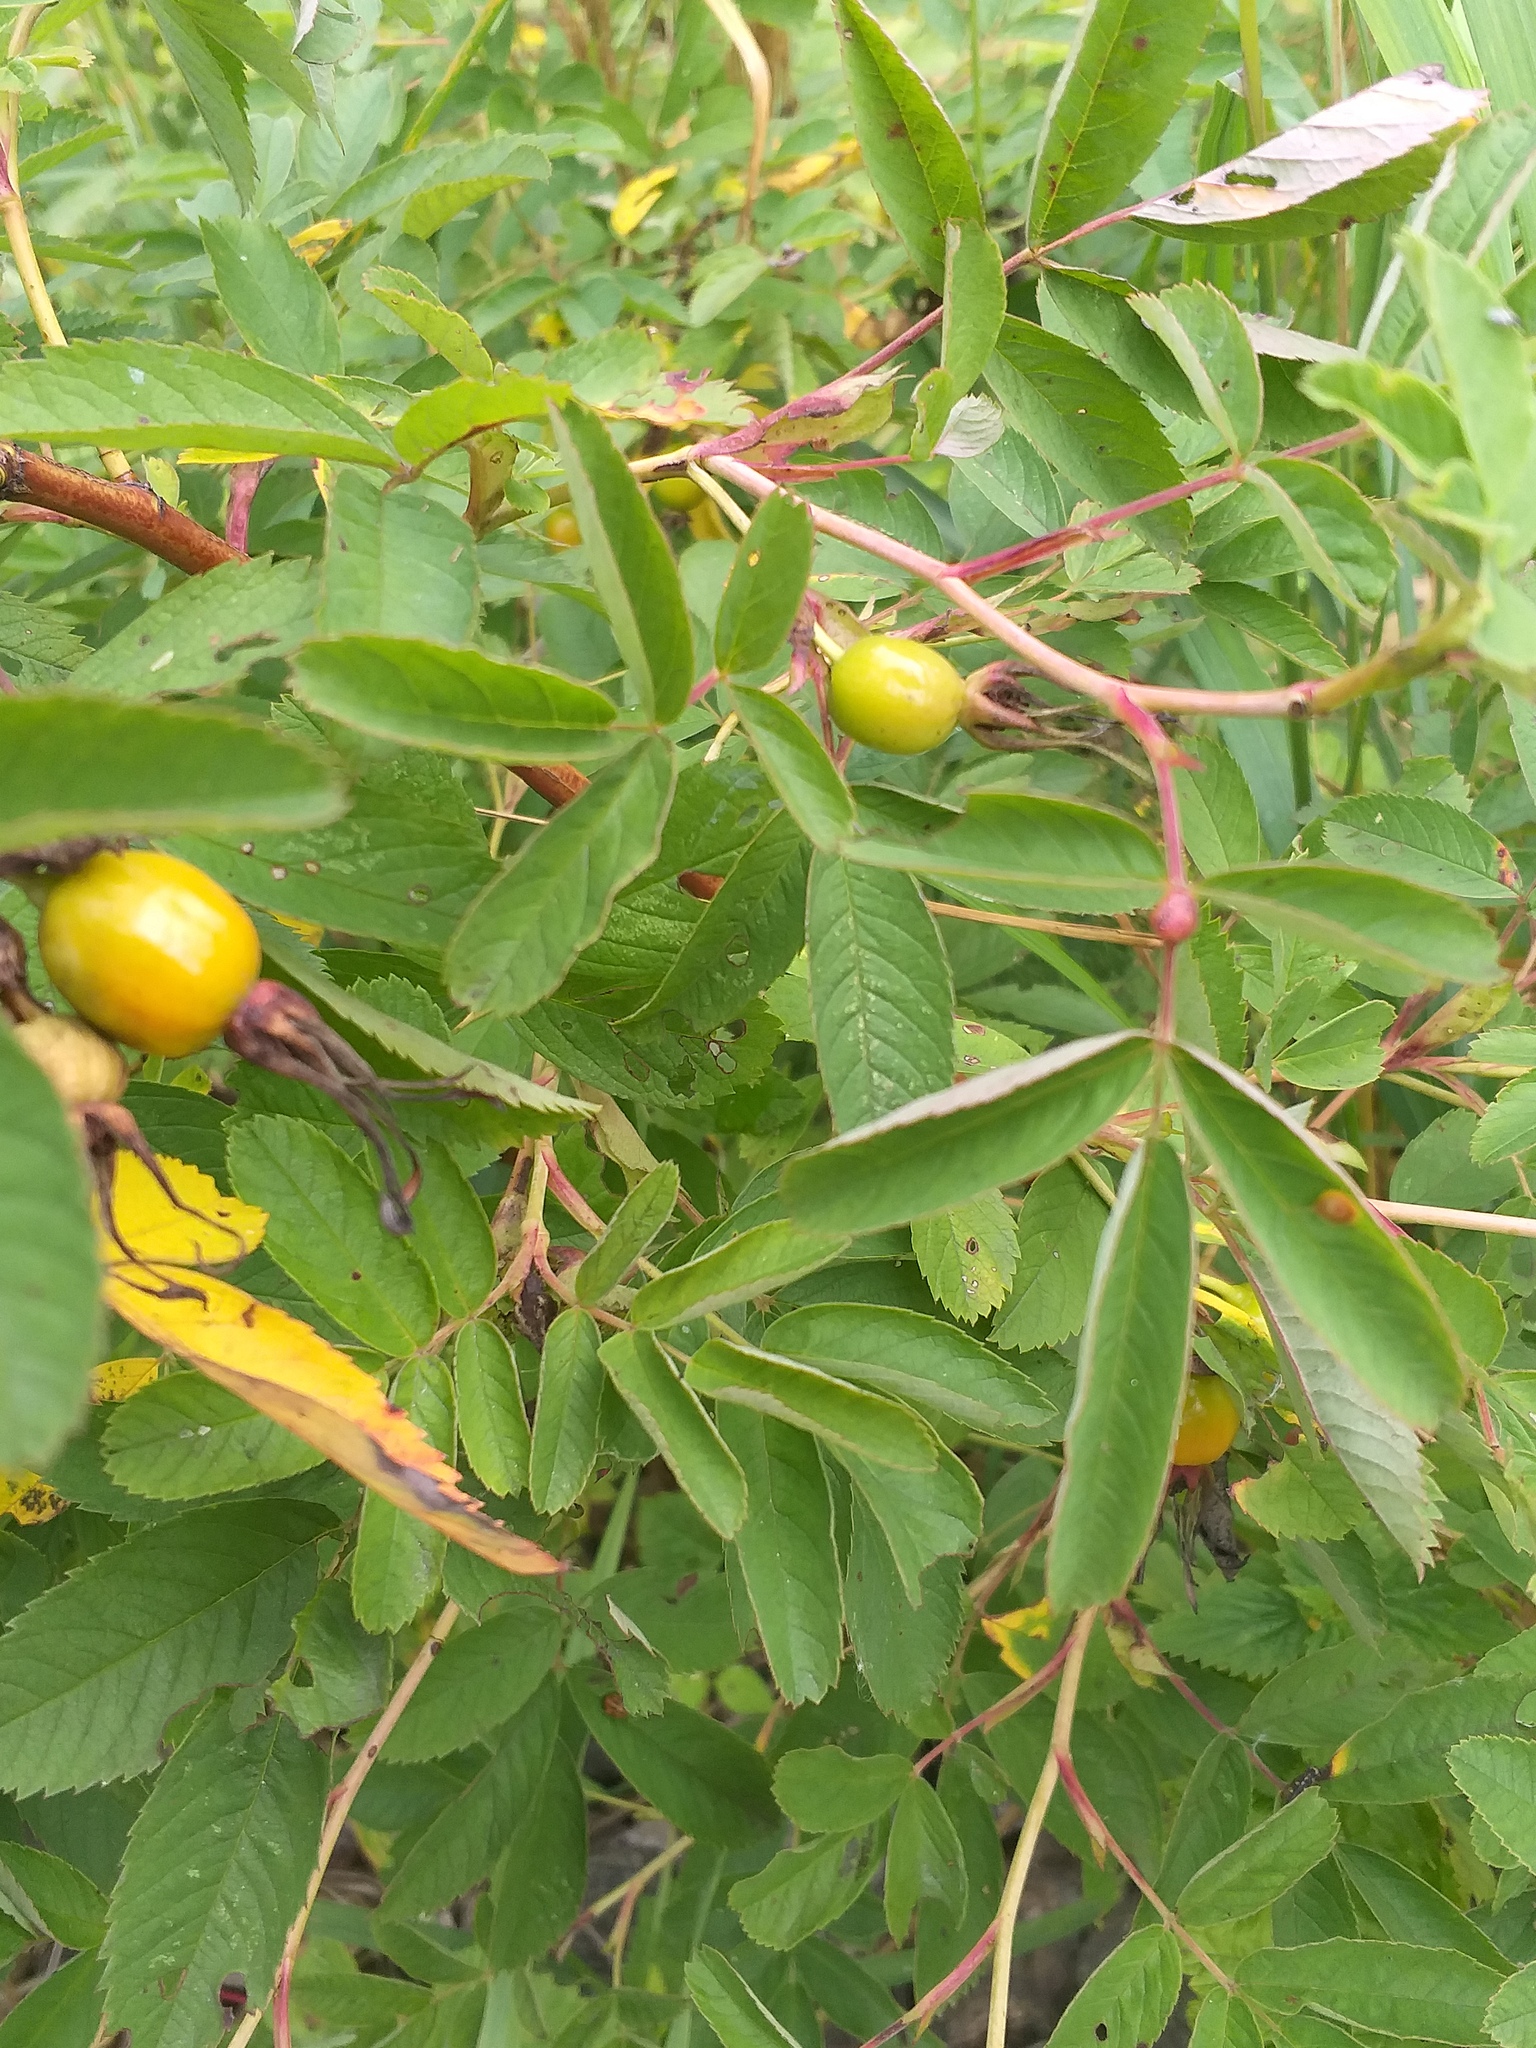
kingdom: Plantae
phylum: Tracheophyta
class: Magnoliopsida
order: Rosales
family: Rosaceae
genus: Rosa
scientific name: Rosa majalis
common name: Cinnamon rose
